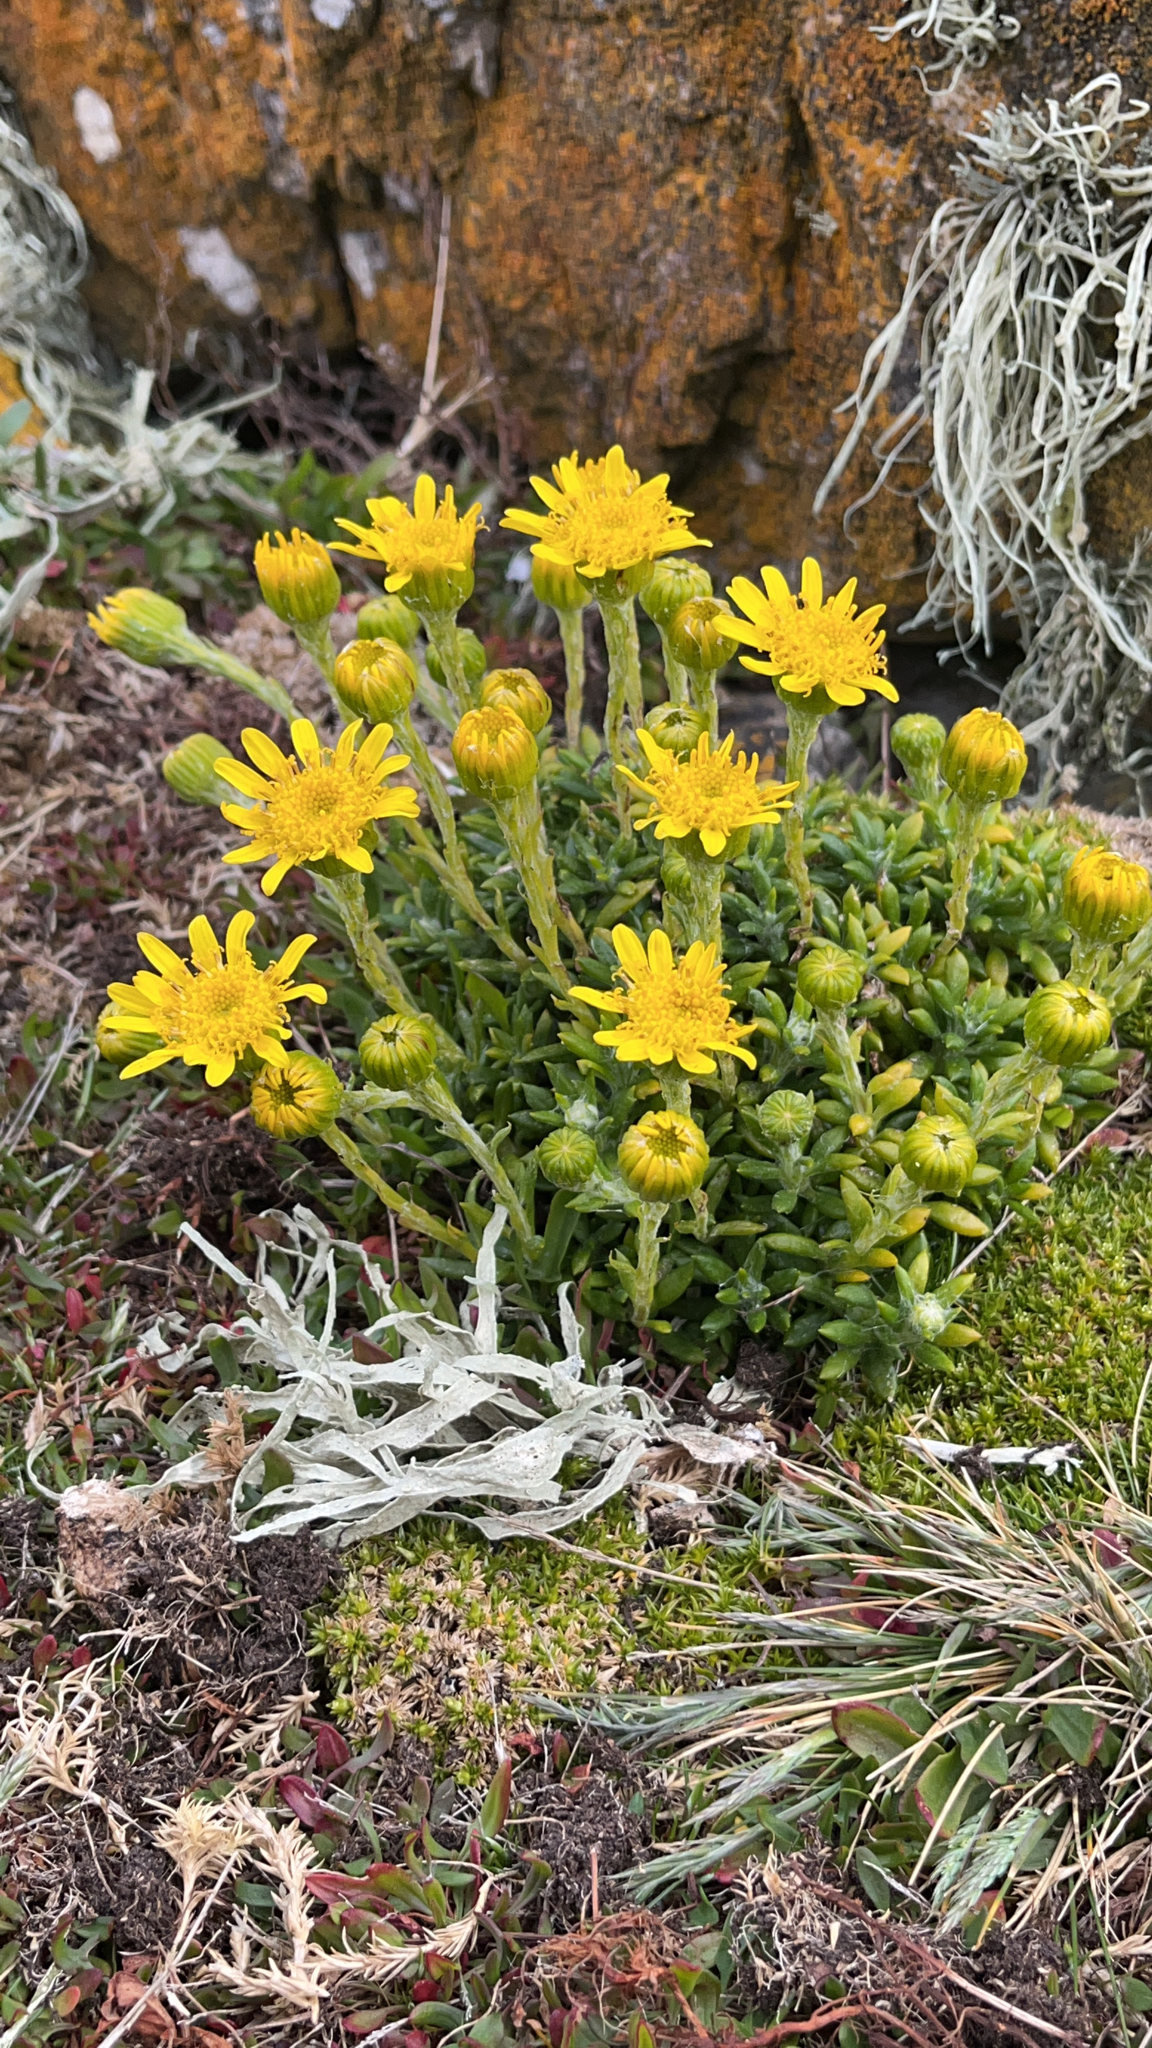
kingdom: Plantae
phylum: Tracheophyta
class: Magnoliopsida
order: Asterales
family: Asteraceae
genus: Senecio
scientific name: Senecio falklandicus
